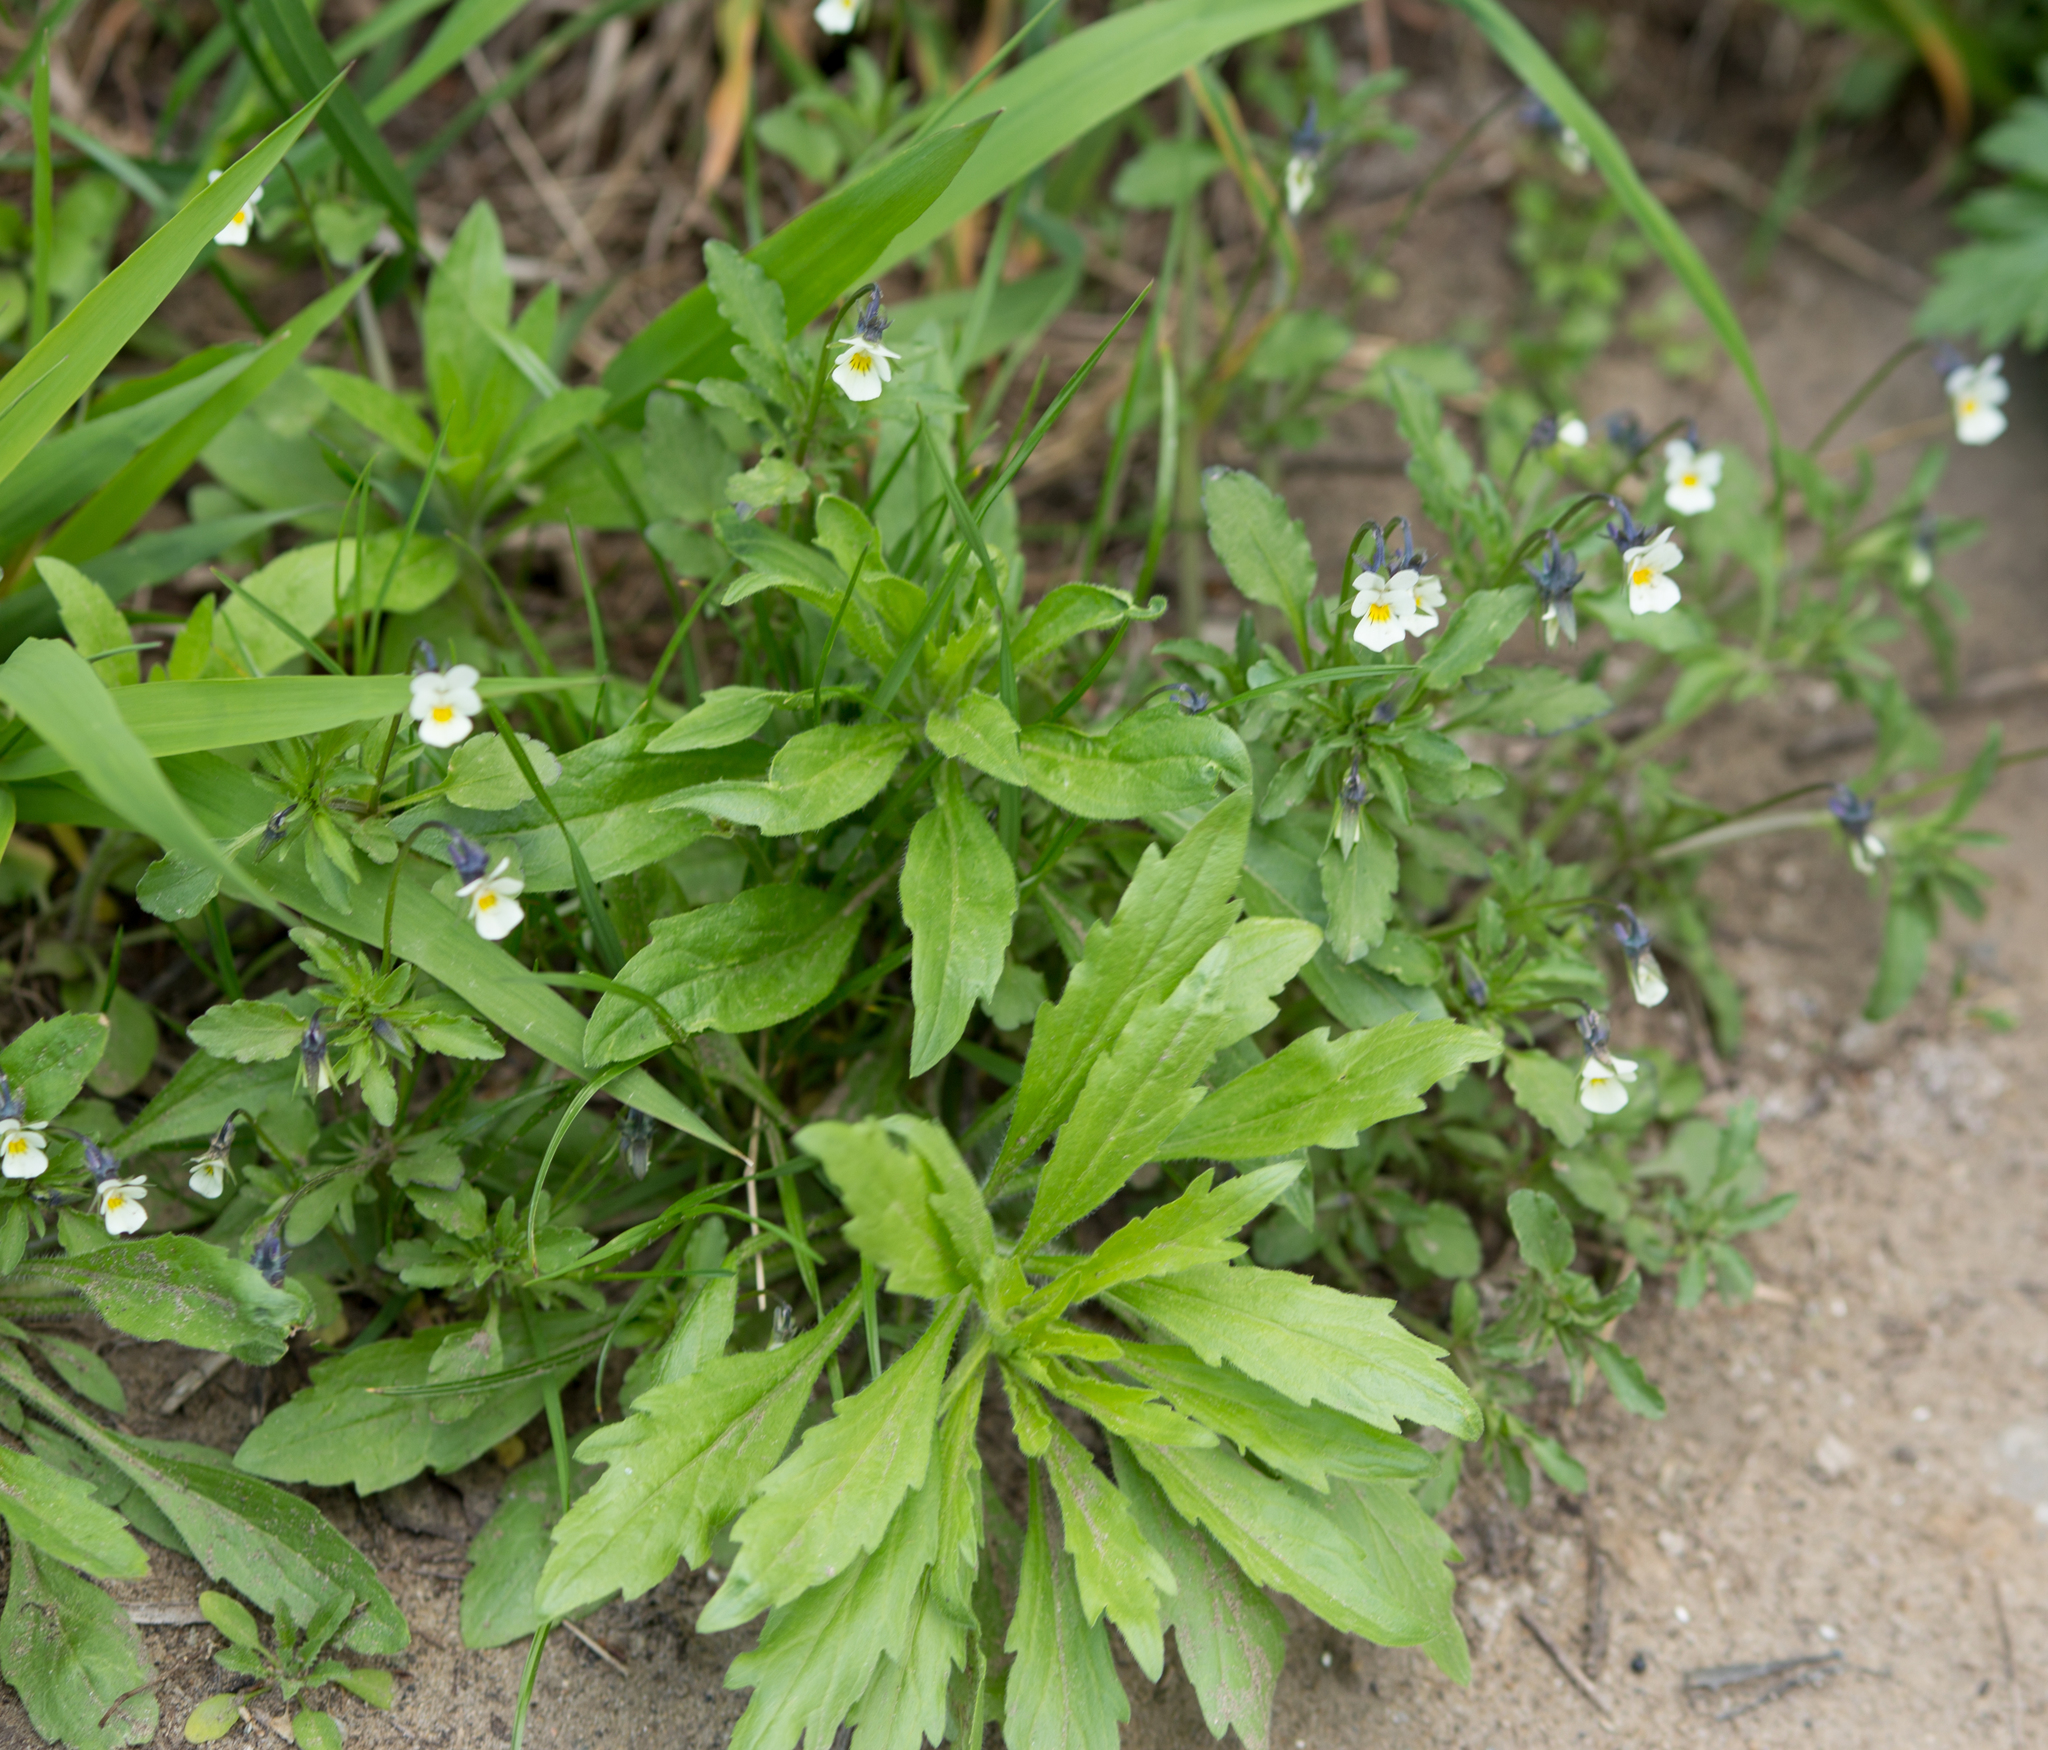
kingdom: Plantae
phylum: Tracheophyta
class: Magnoliopsida
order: Malpighiales
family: Violaceae
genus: Viola
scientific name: Viola arvensis
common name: Field pansy
